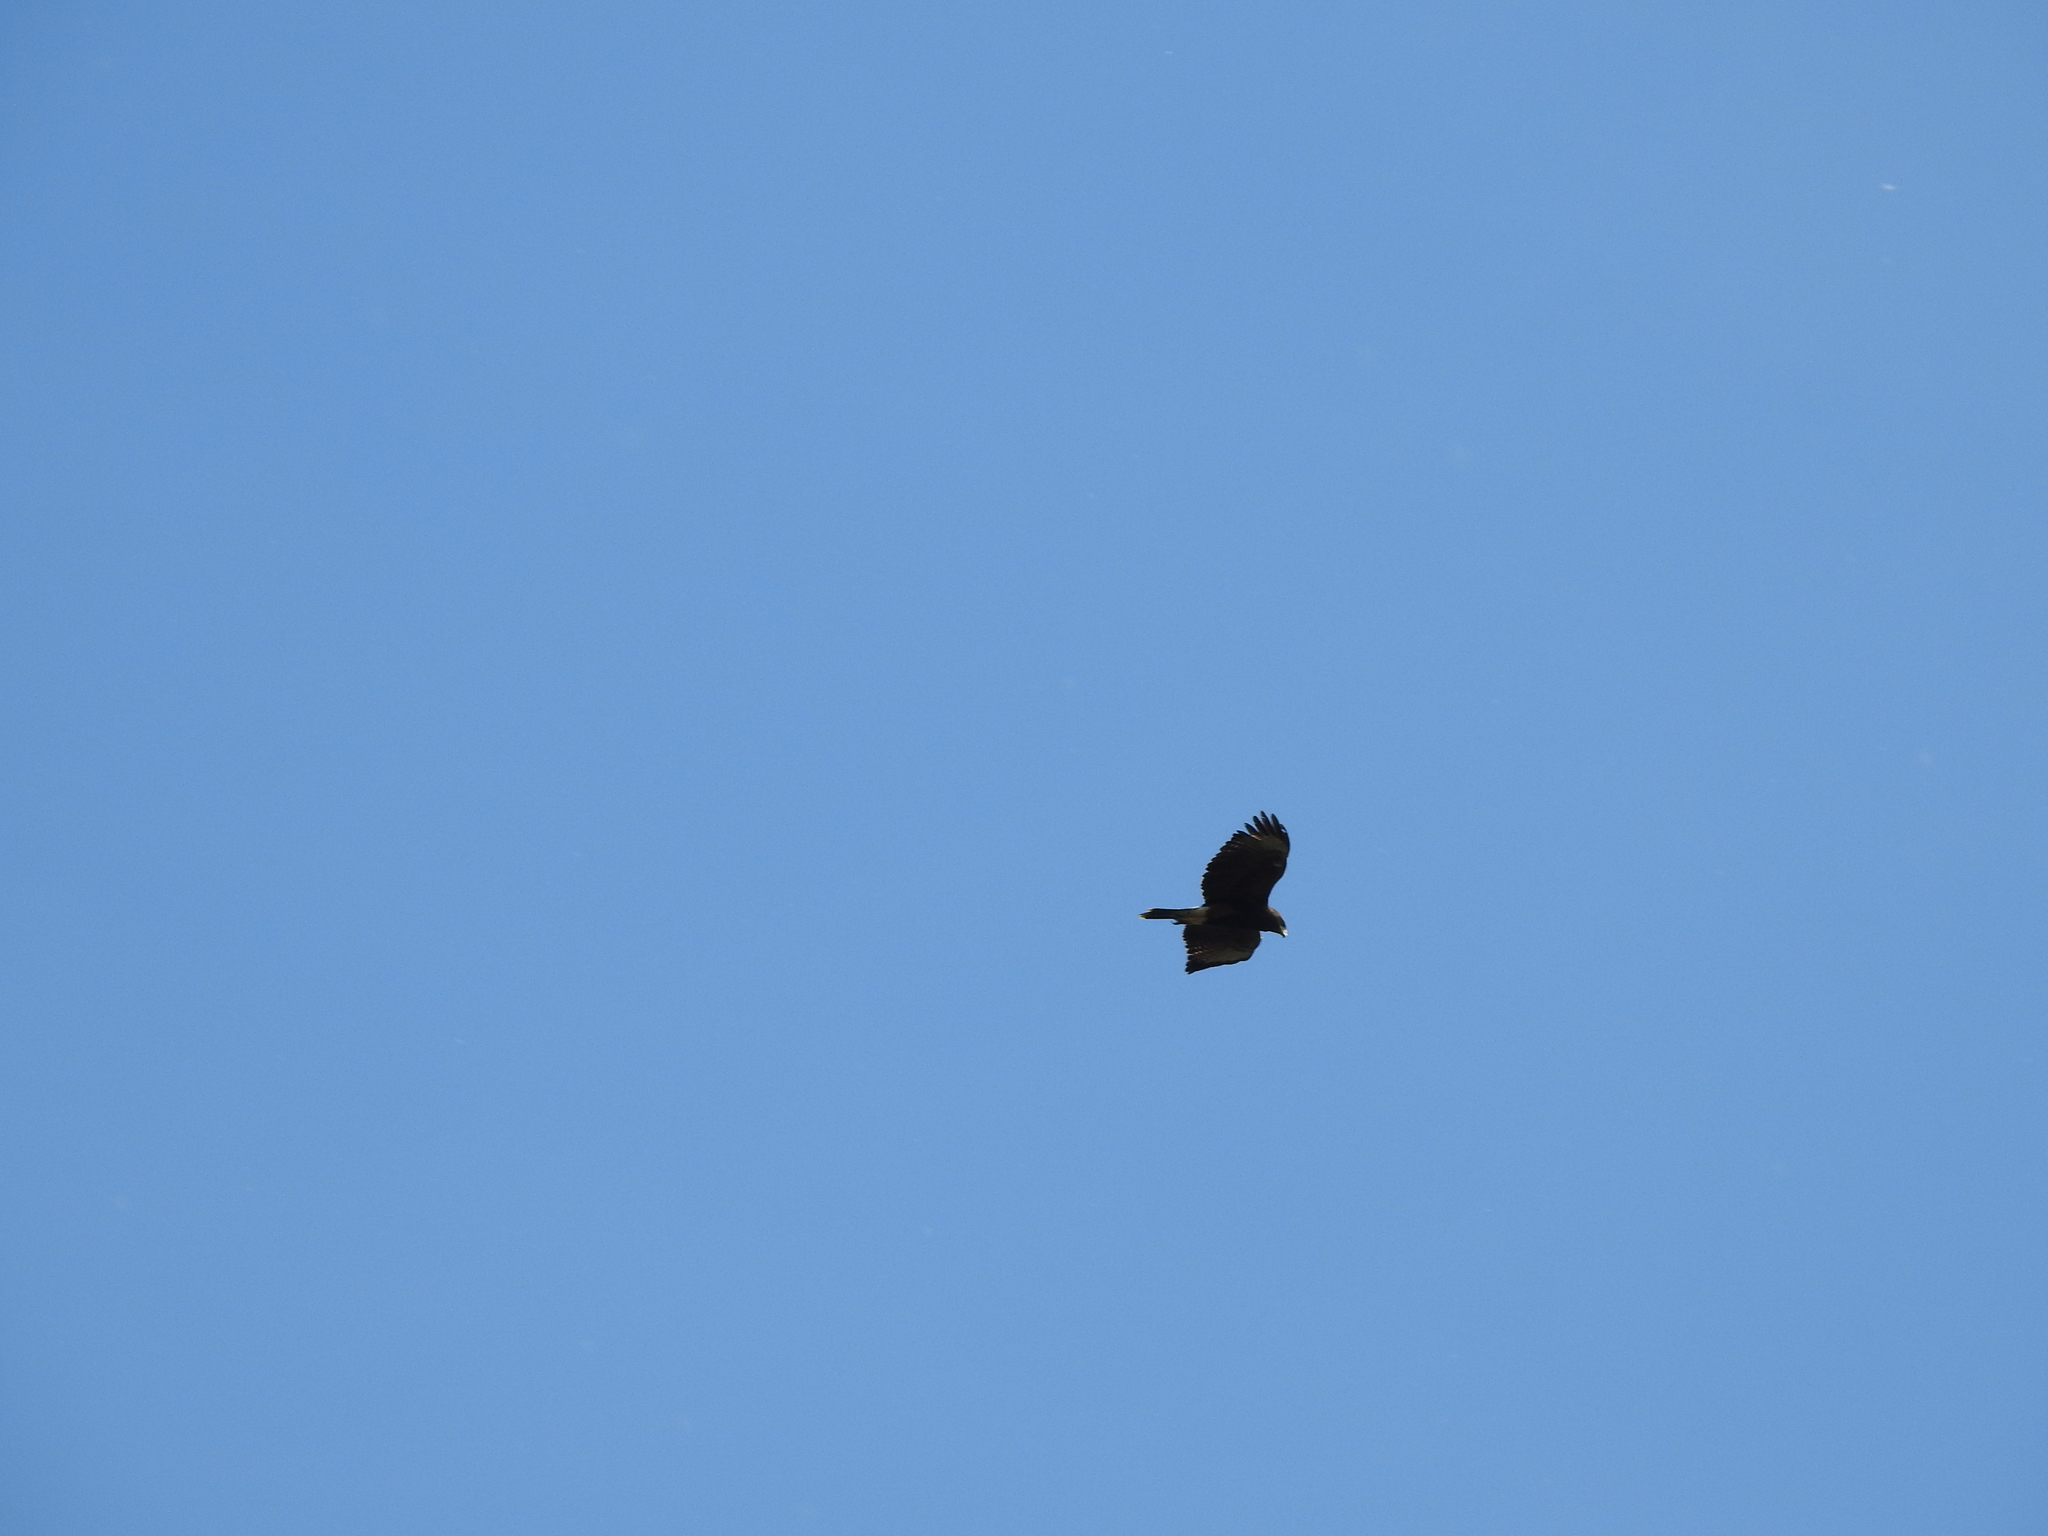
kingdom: Animalia
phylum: Chordata
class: Aves
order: Accipitriformes
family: Accipitridae
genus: Parabuteo
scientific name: Parabuteo unicinctus
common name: Harris's hawk
